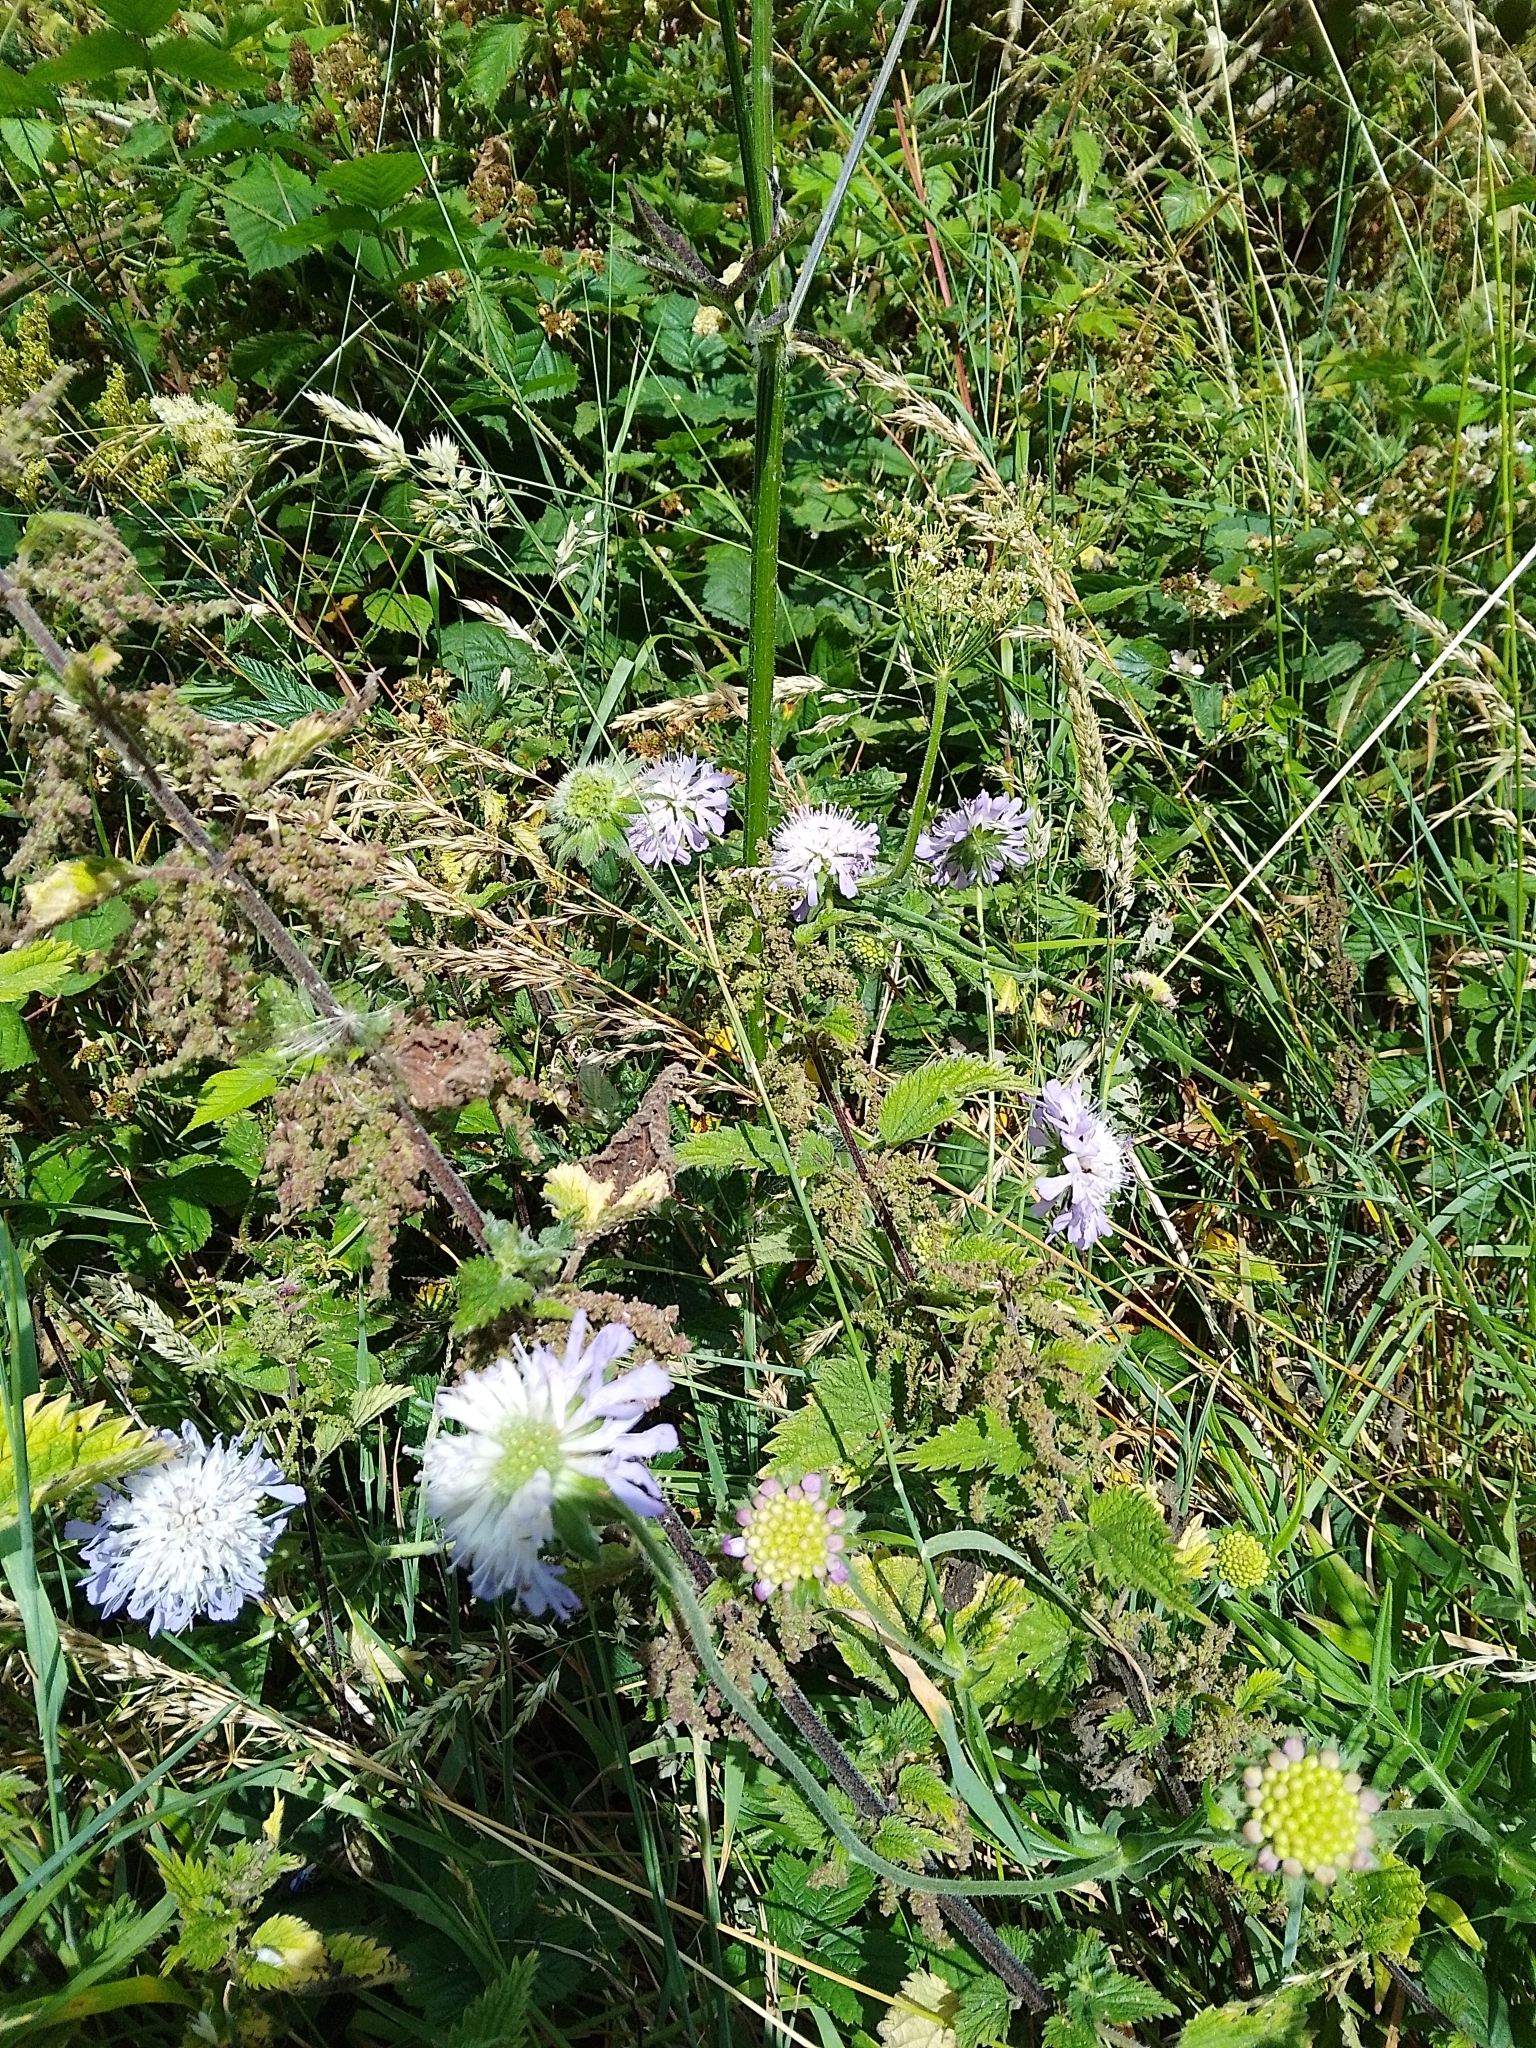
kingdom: Plantae
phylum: Tracheophyta
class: Magnoliopsida
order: Dipsacales
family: Caprifoliaceae
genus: Knautia
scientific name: Knautia arvensis
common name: Field scabiosa
